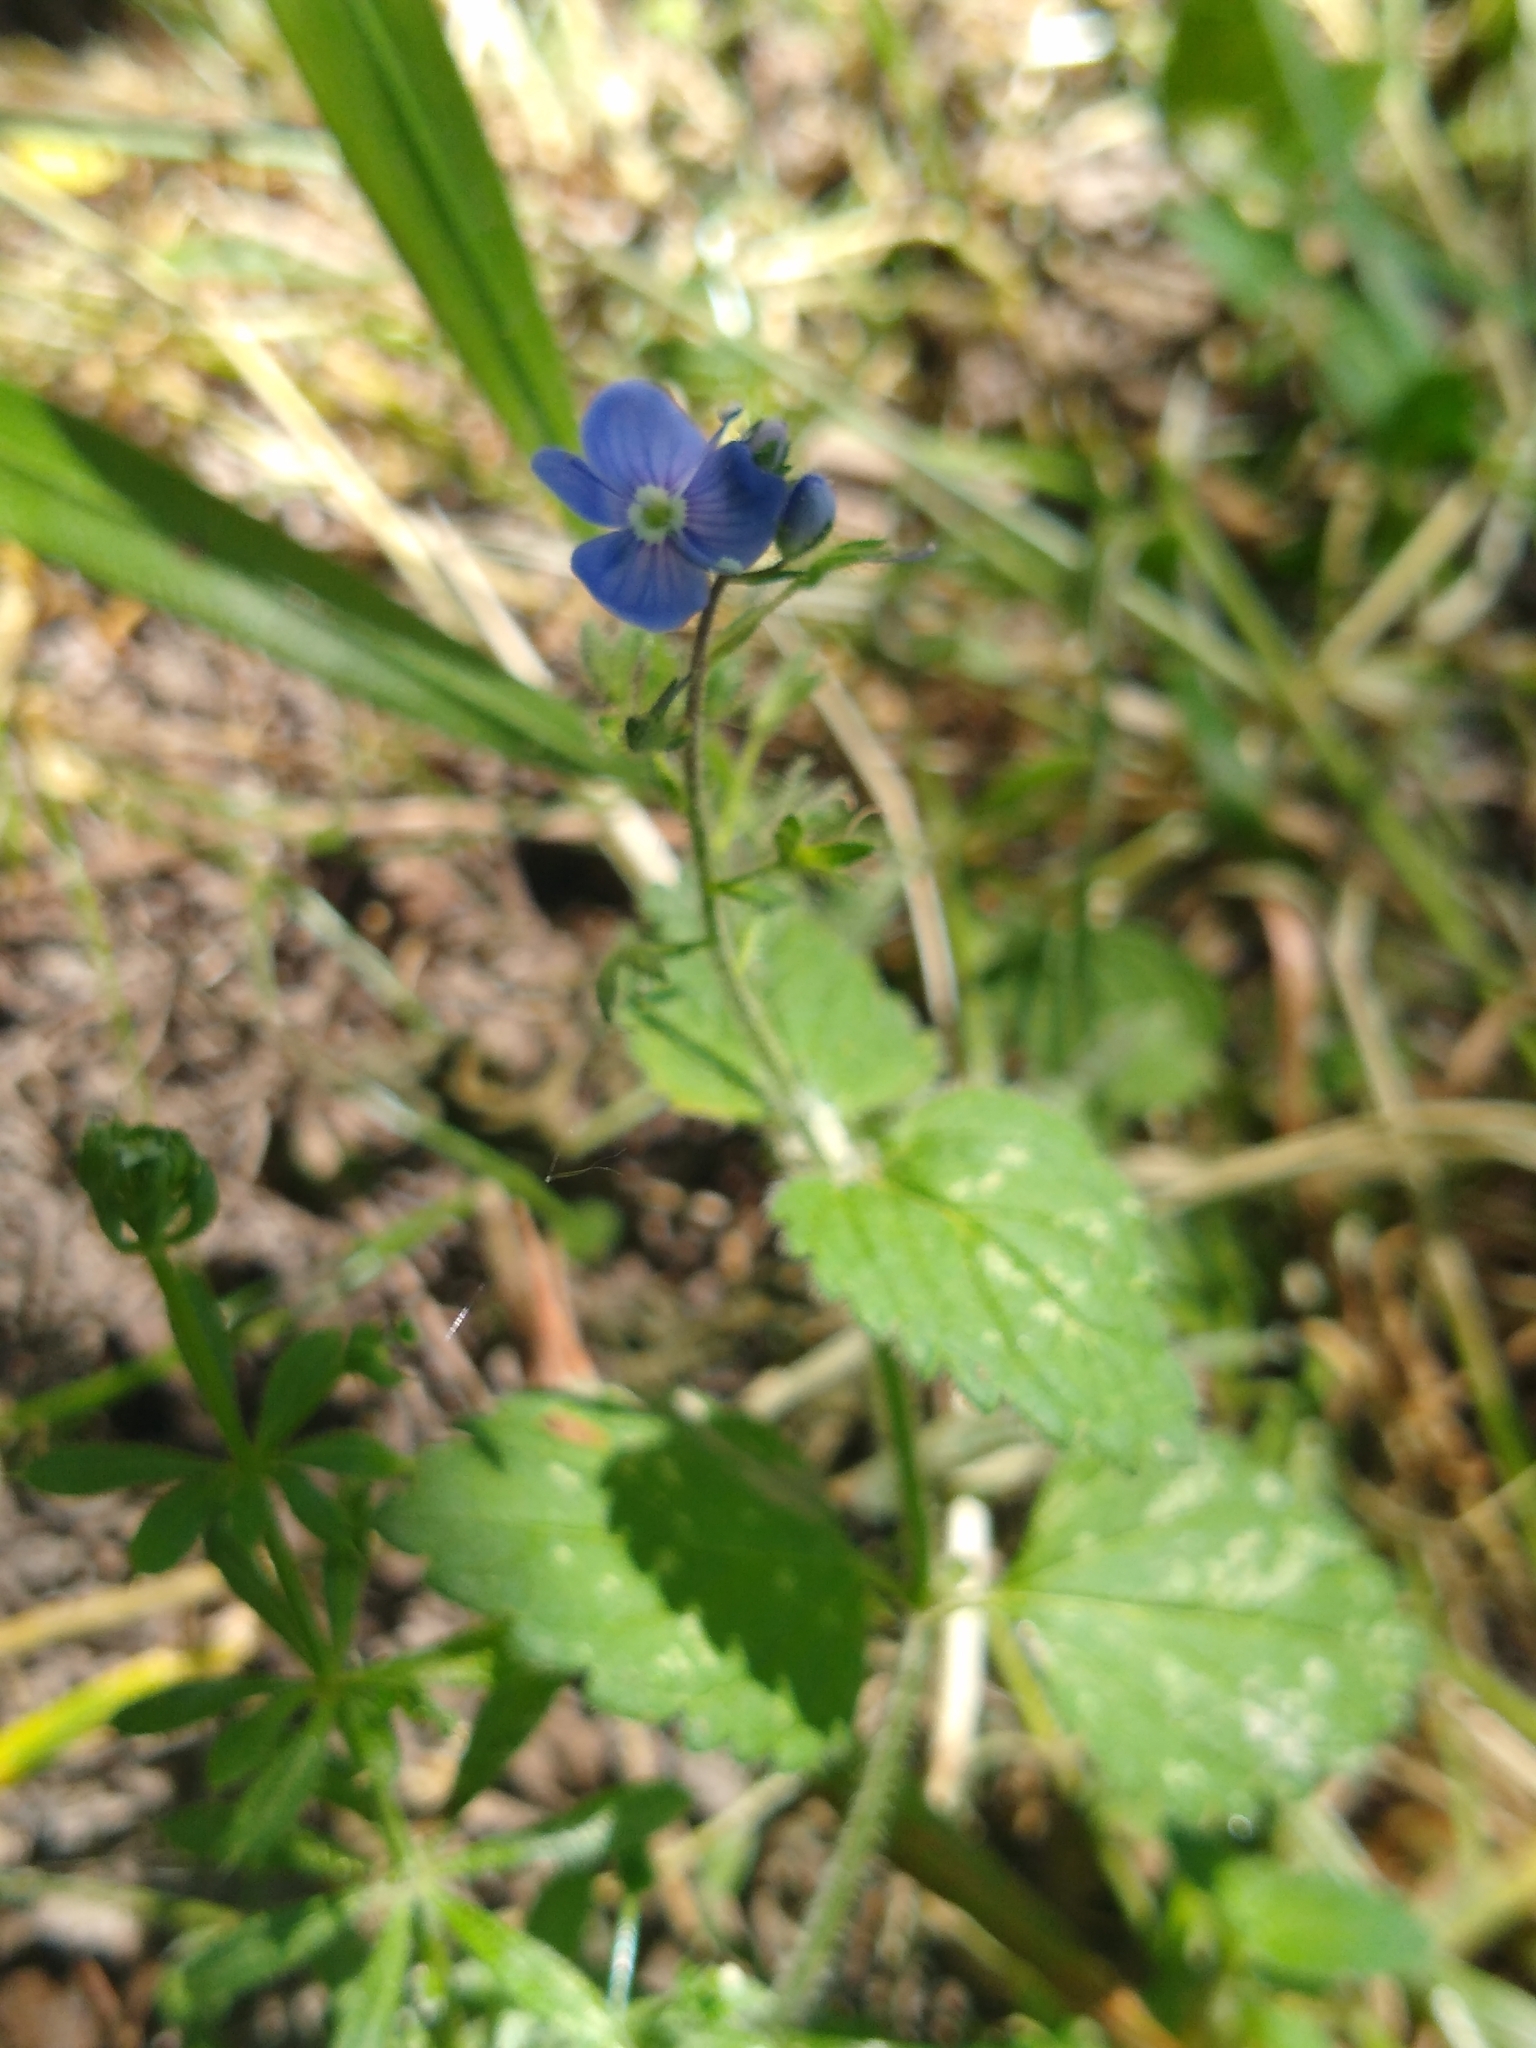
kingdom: Plantae
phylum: Tracheophyta
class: Magnoliopsida
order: Lamiales
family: Plantaginaceae
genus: Veronica
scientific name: Veronica chamaedrys
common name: Germander speedwell
